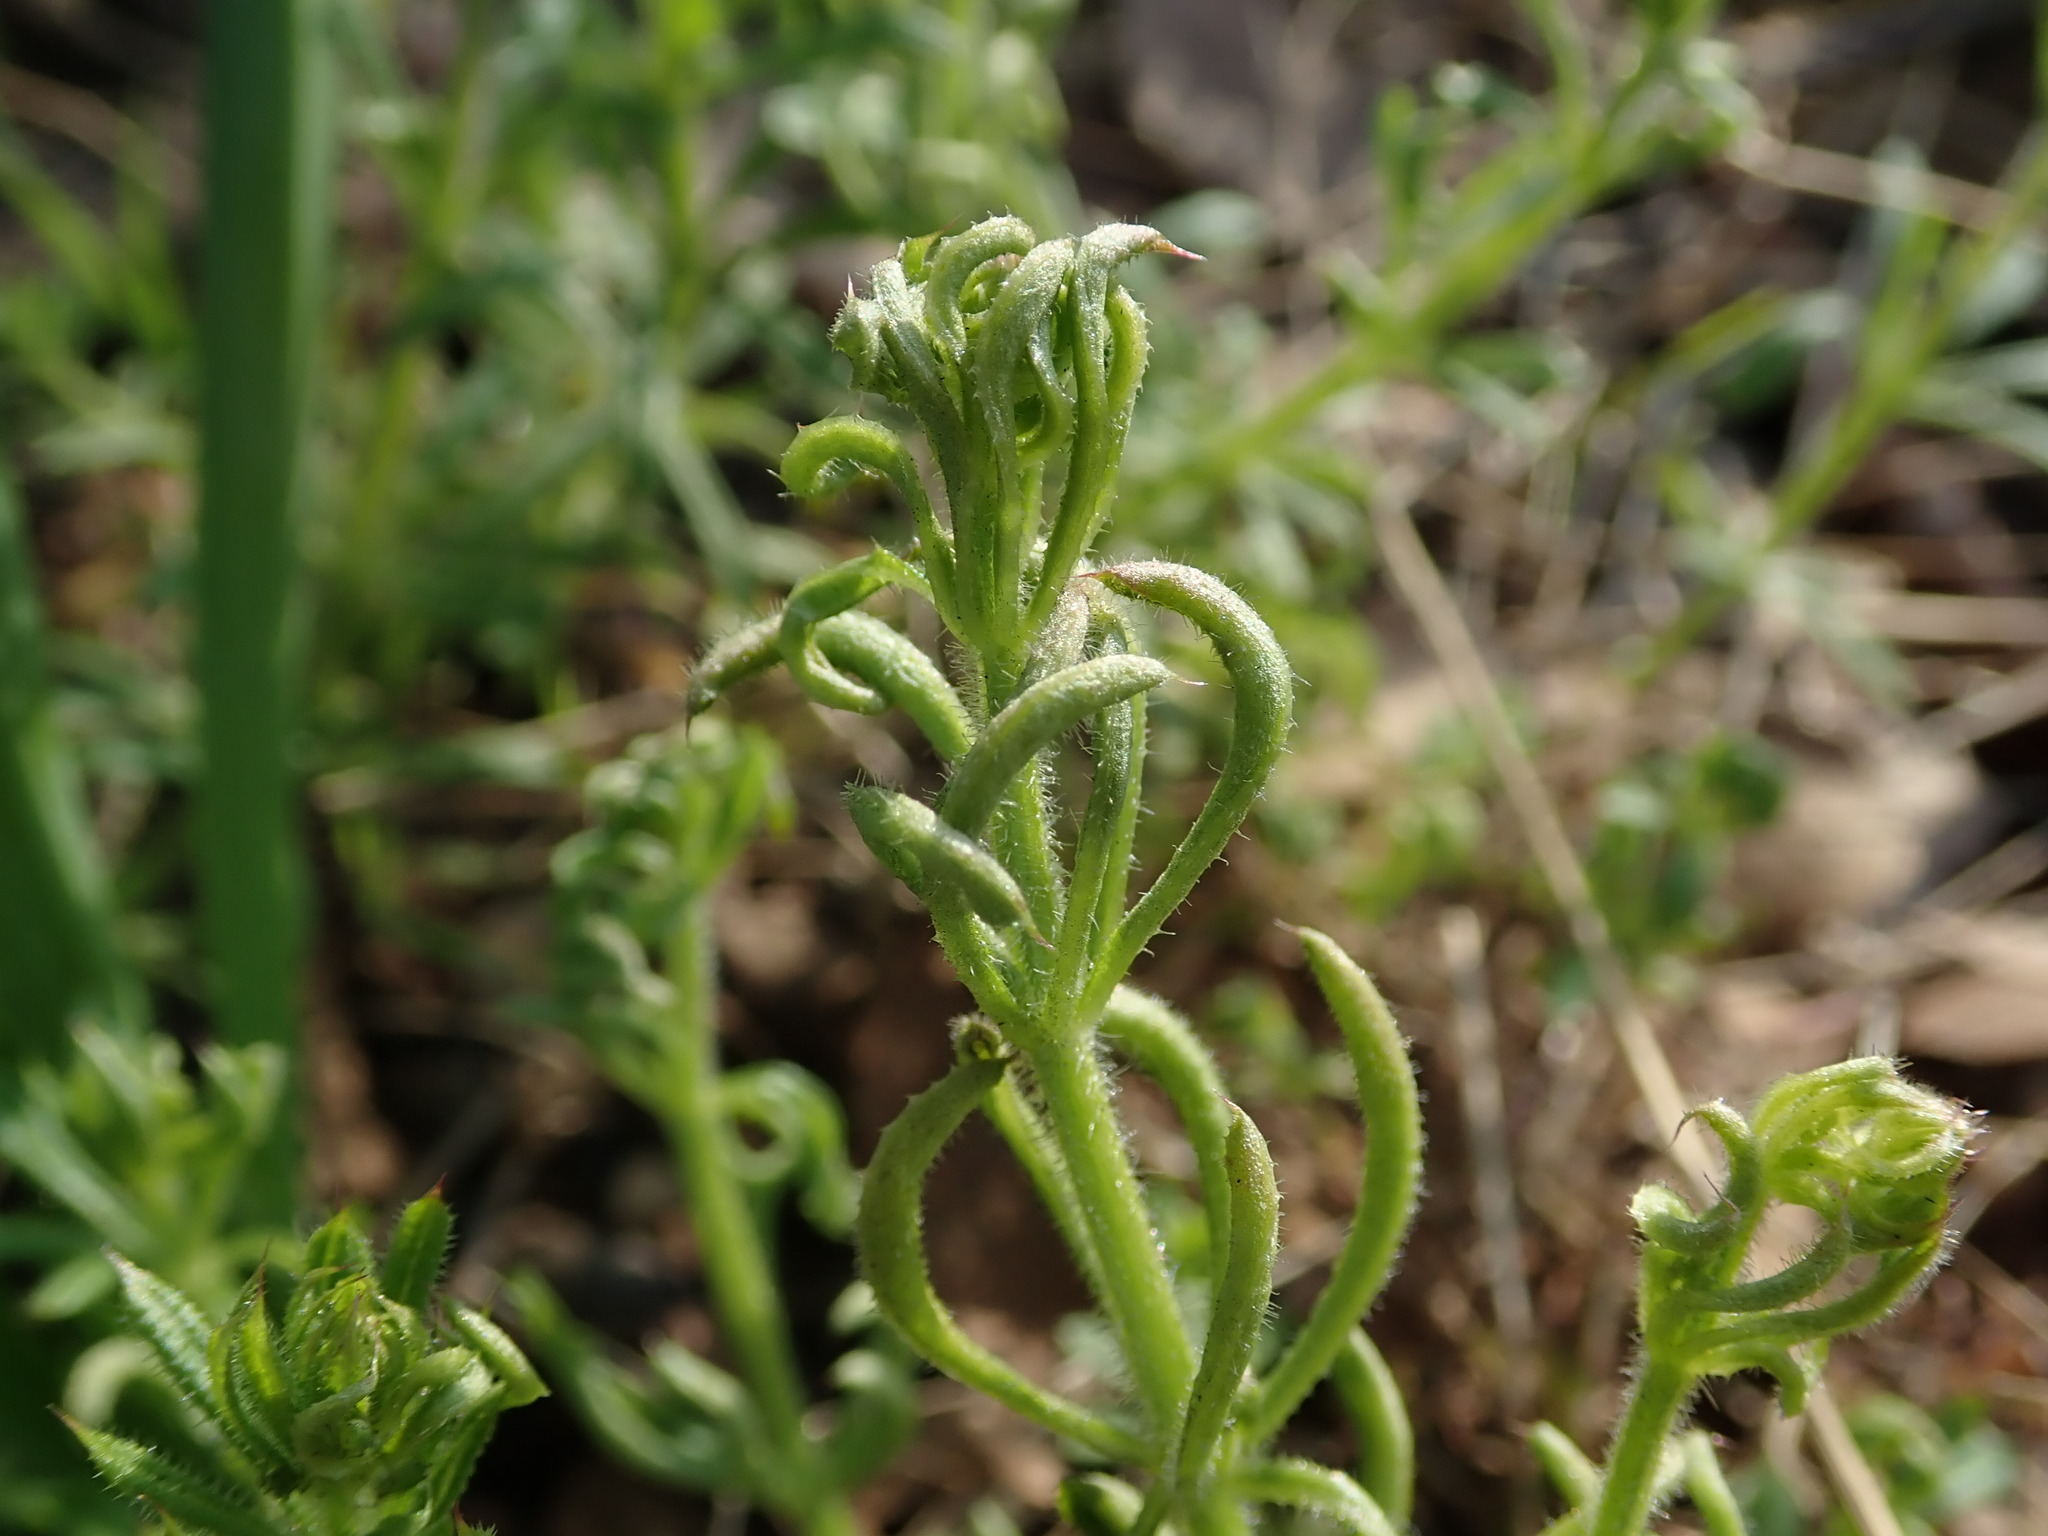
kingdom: Animalia
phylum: Arthropoda
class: Arachnida
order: Trombidiformes
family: Eriophyidae
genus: Cecidophyes
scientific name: Cecidophyes rouhollahi
